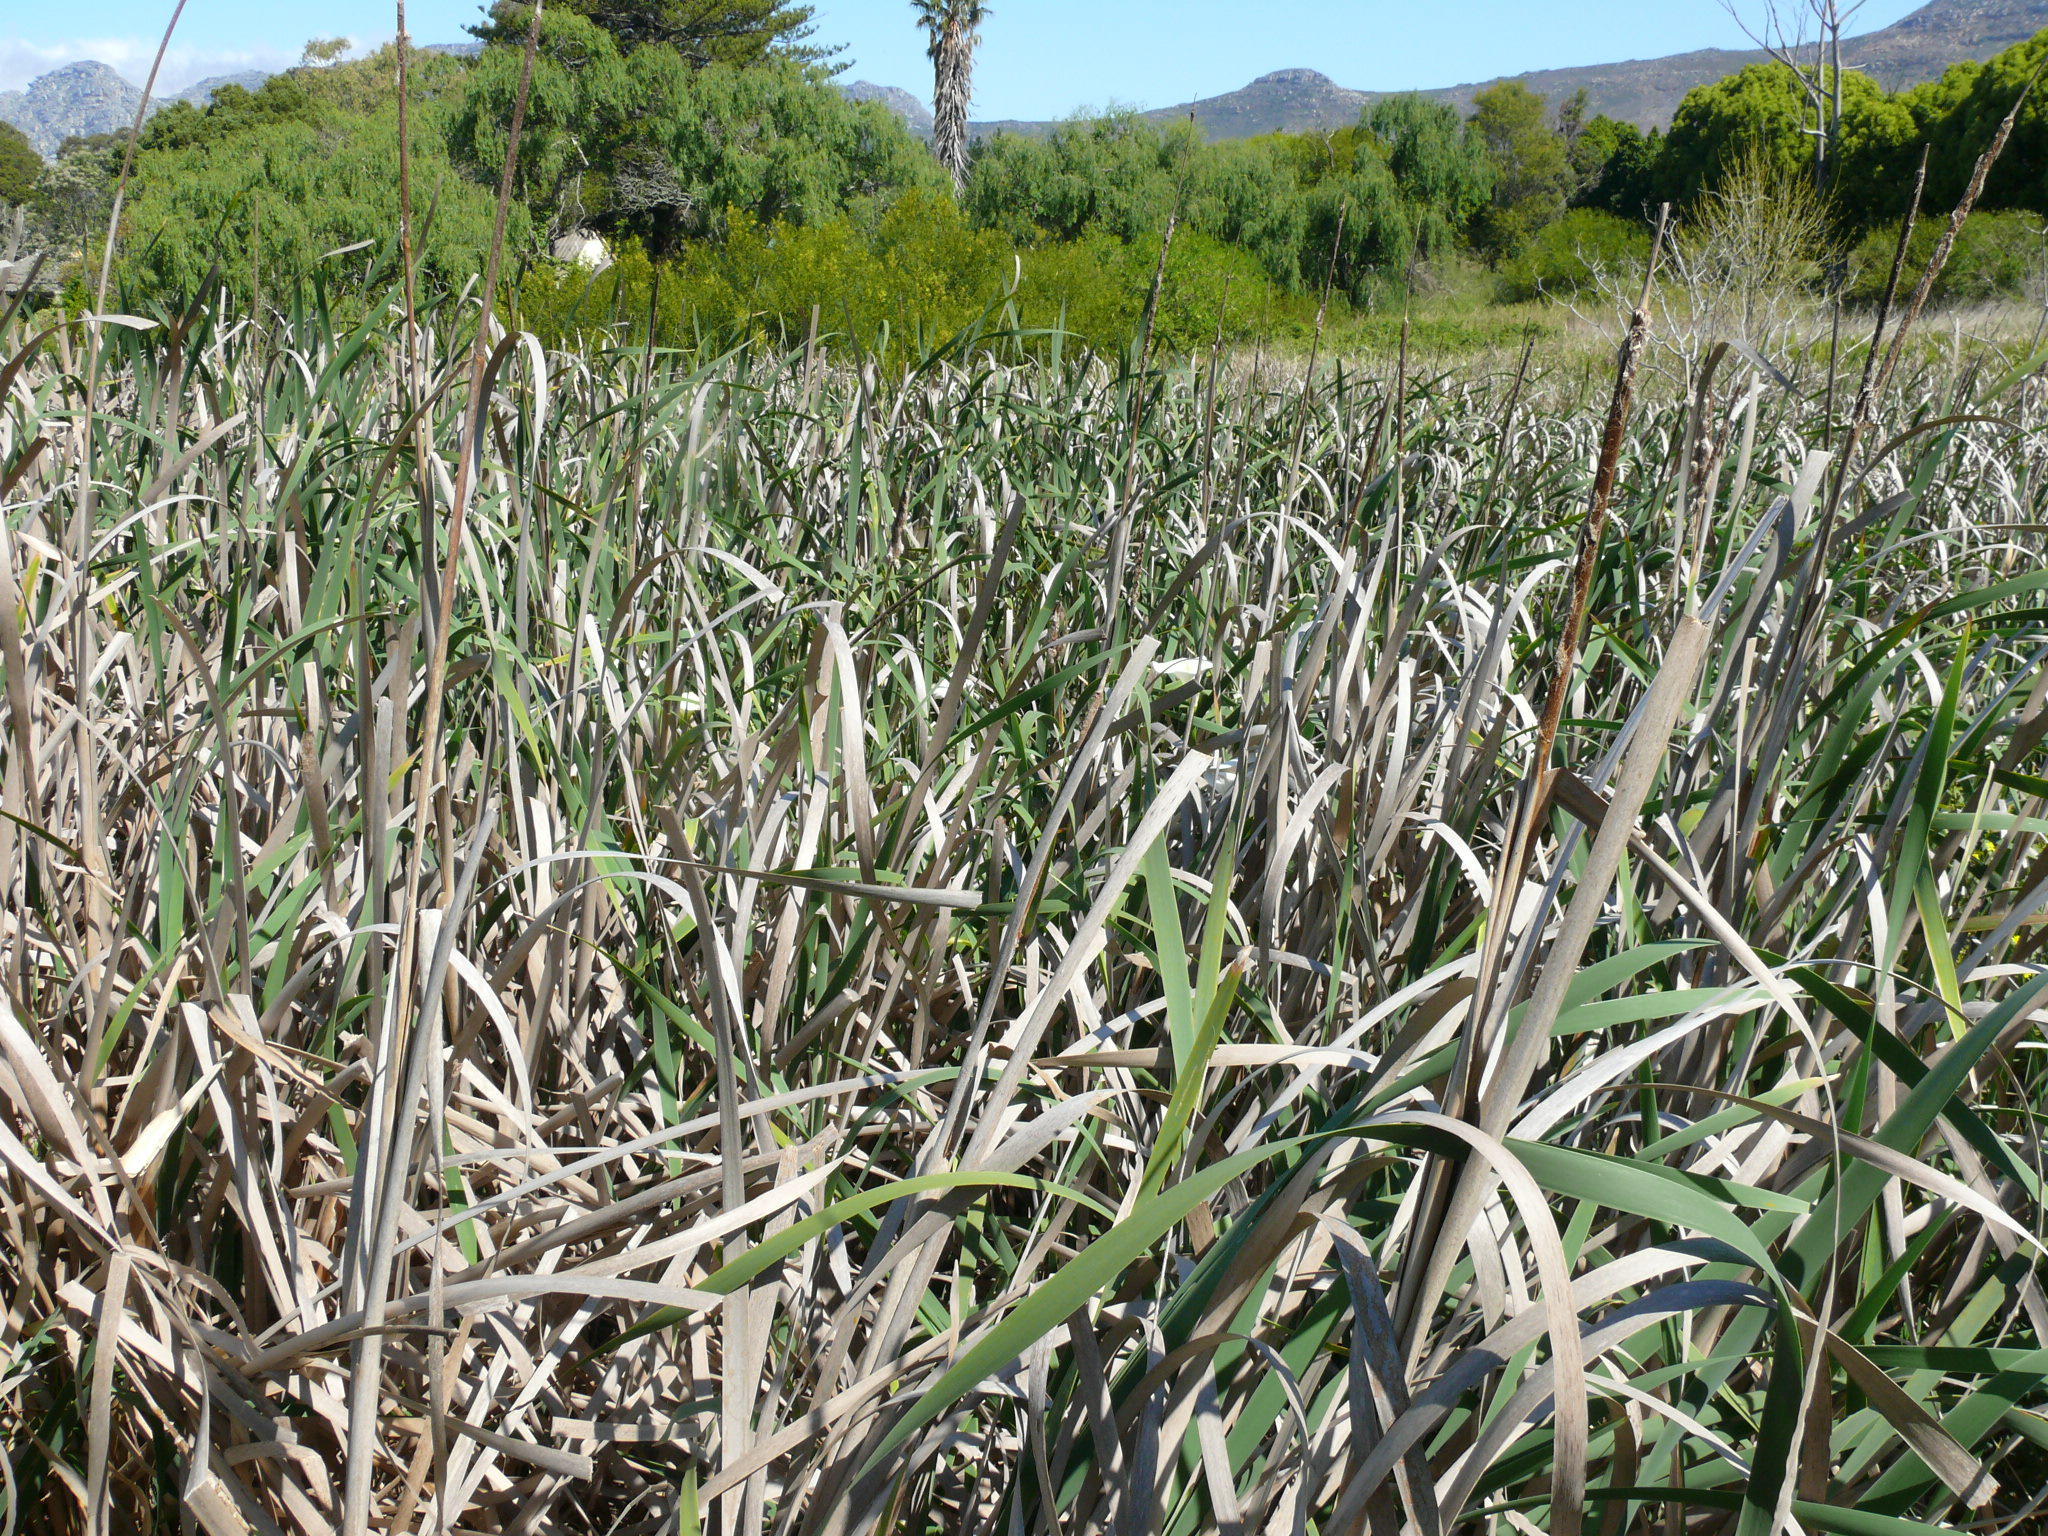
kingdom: Plantae
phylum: Tracheophyta
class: Liliopsida
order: Poales
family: Typhaceae
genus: Typha
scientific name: Typha capensis
